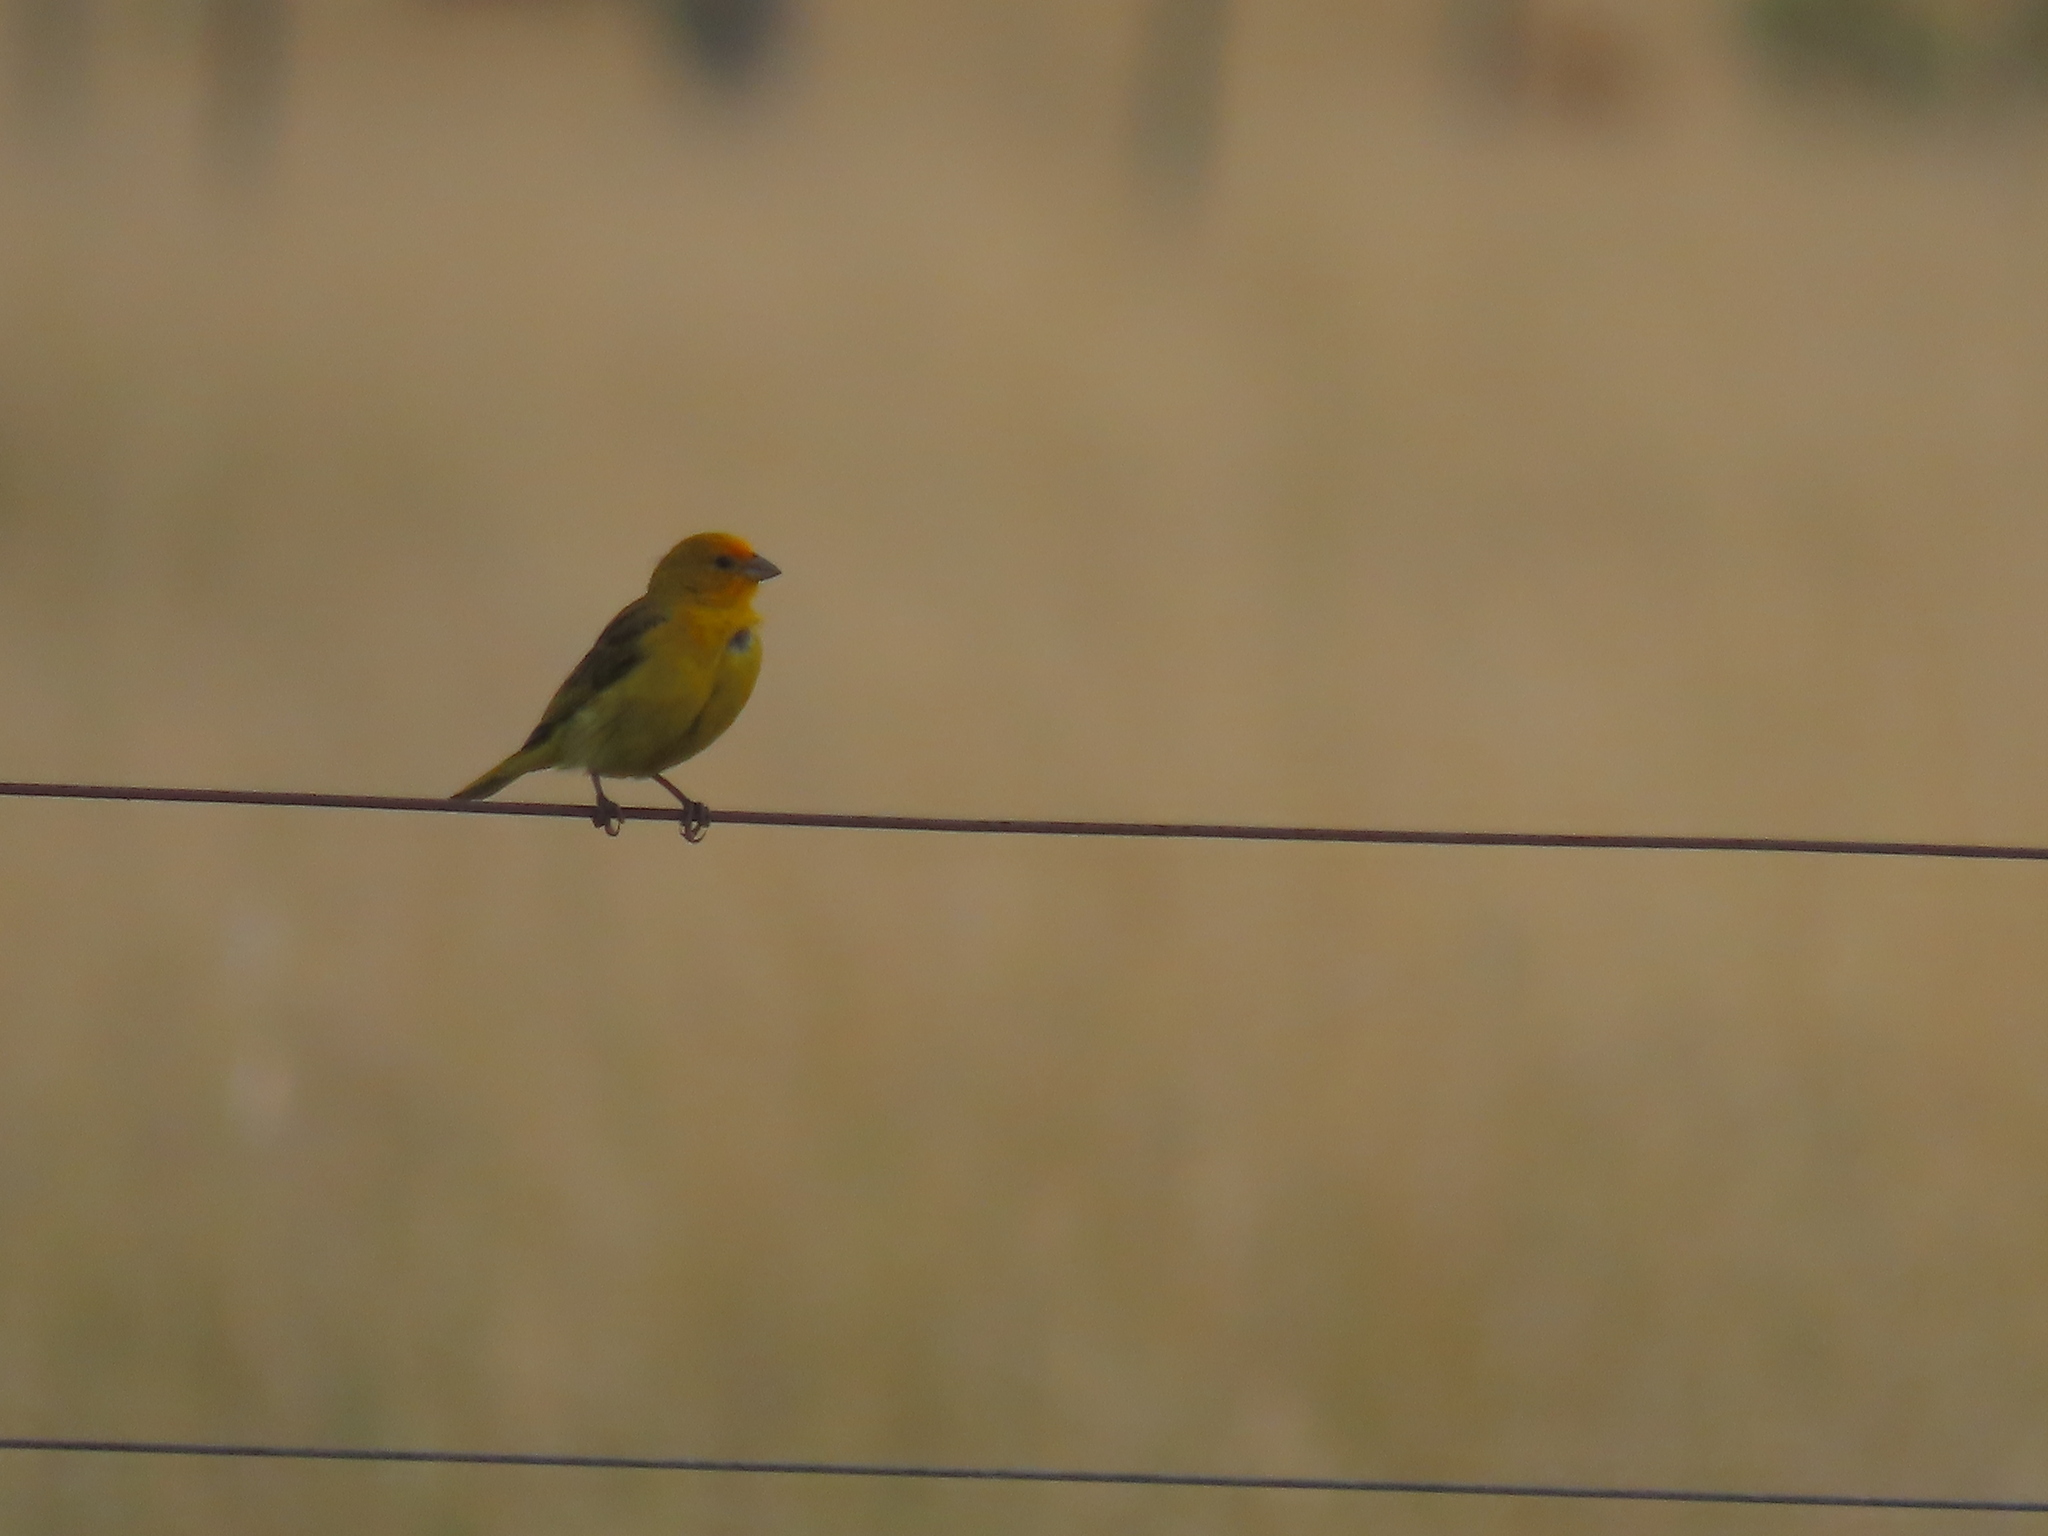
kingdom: Animalia
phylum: Chordata
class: Aves
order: Passeriformes
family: Thraupidae
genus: Sicalis
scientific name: Sicalis flaveola
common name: Saffron finch
